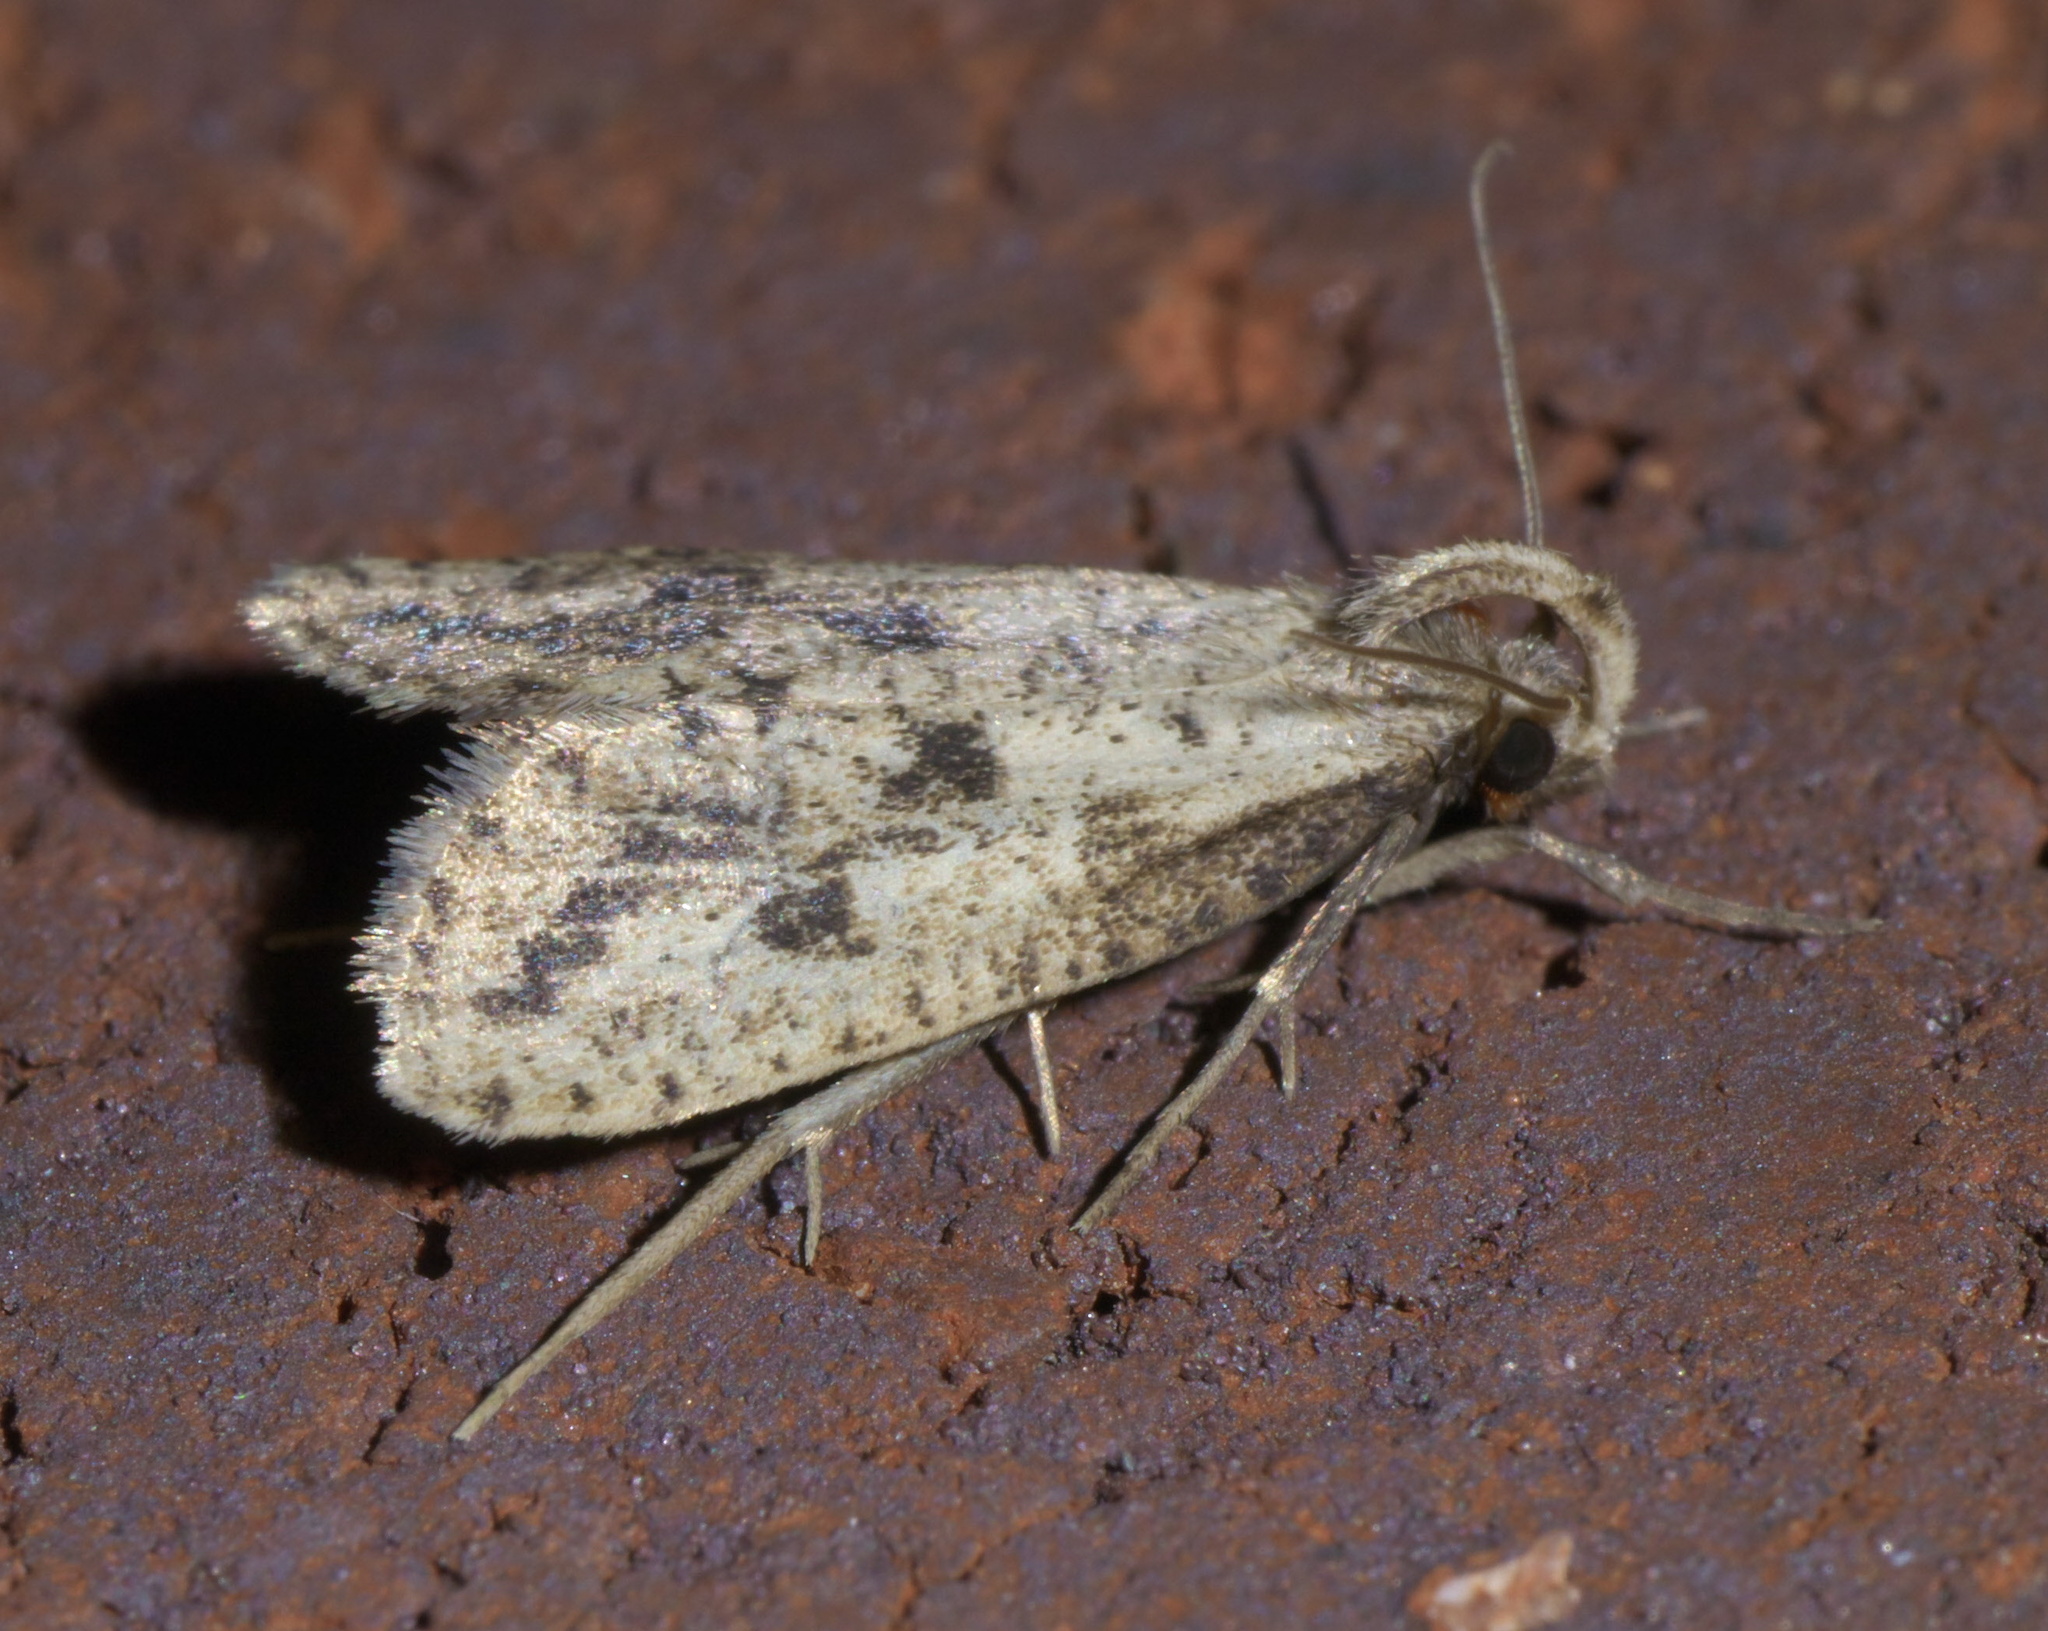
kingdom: Animalia
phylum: Arthropoda
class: Insecta
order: Lepidoptera
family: Tineidae
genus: Acrolophus
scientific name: Acrolophus mortipennella
